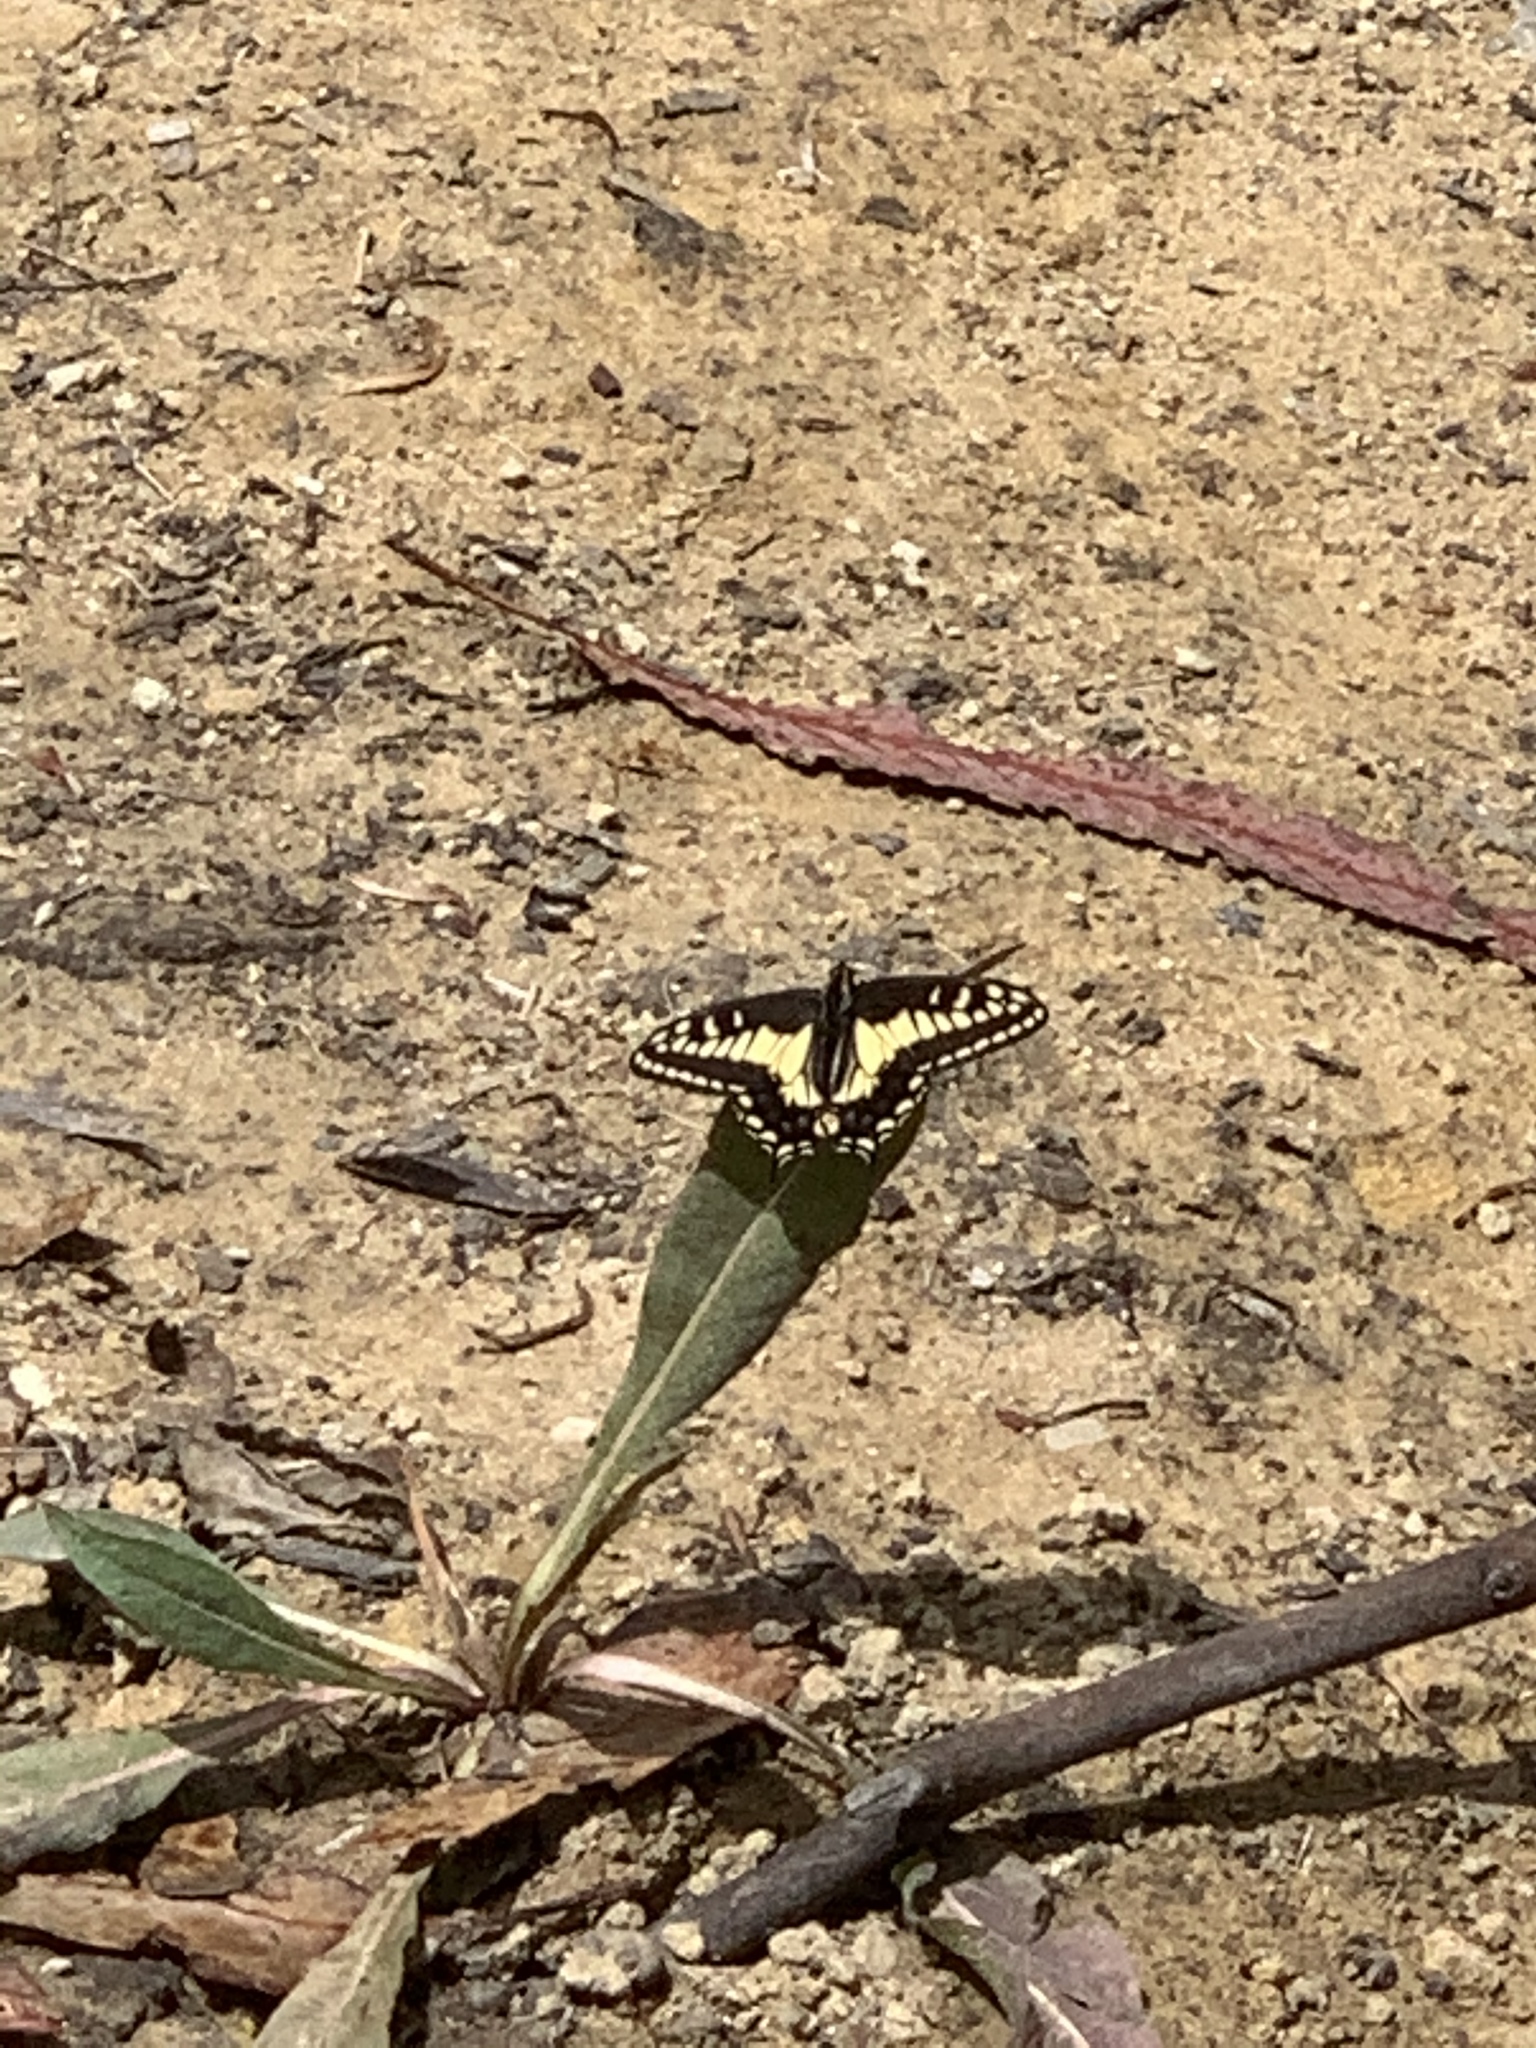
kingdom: Animalia
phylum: Arthropoda
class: Insecta
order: Lepidoptera
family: Papilionidae
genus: Papilio
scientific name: Papilio zelicaon
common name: Anise swallowtail
